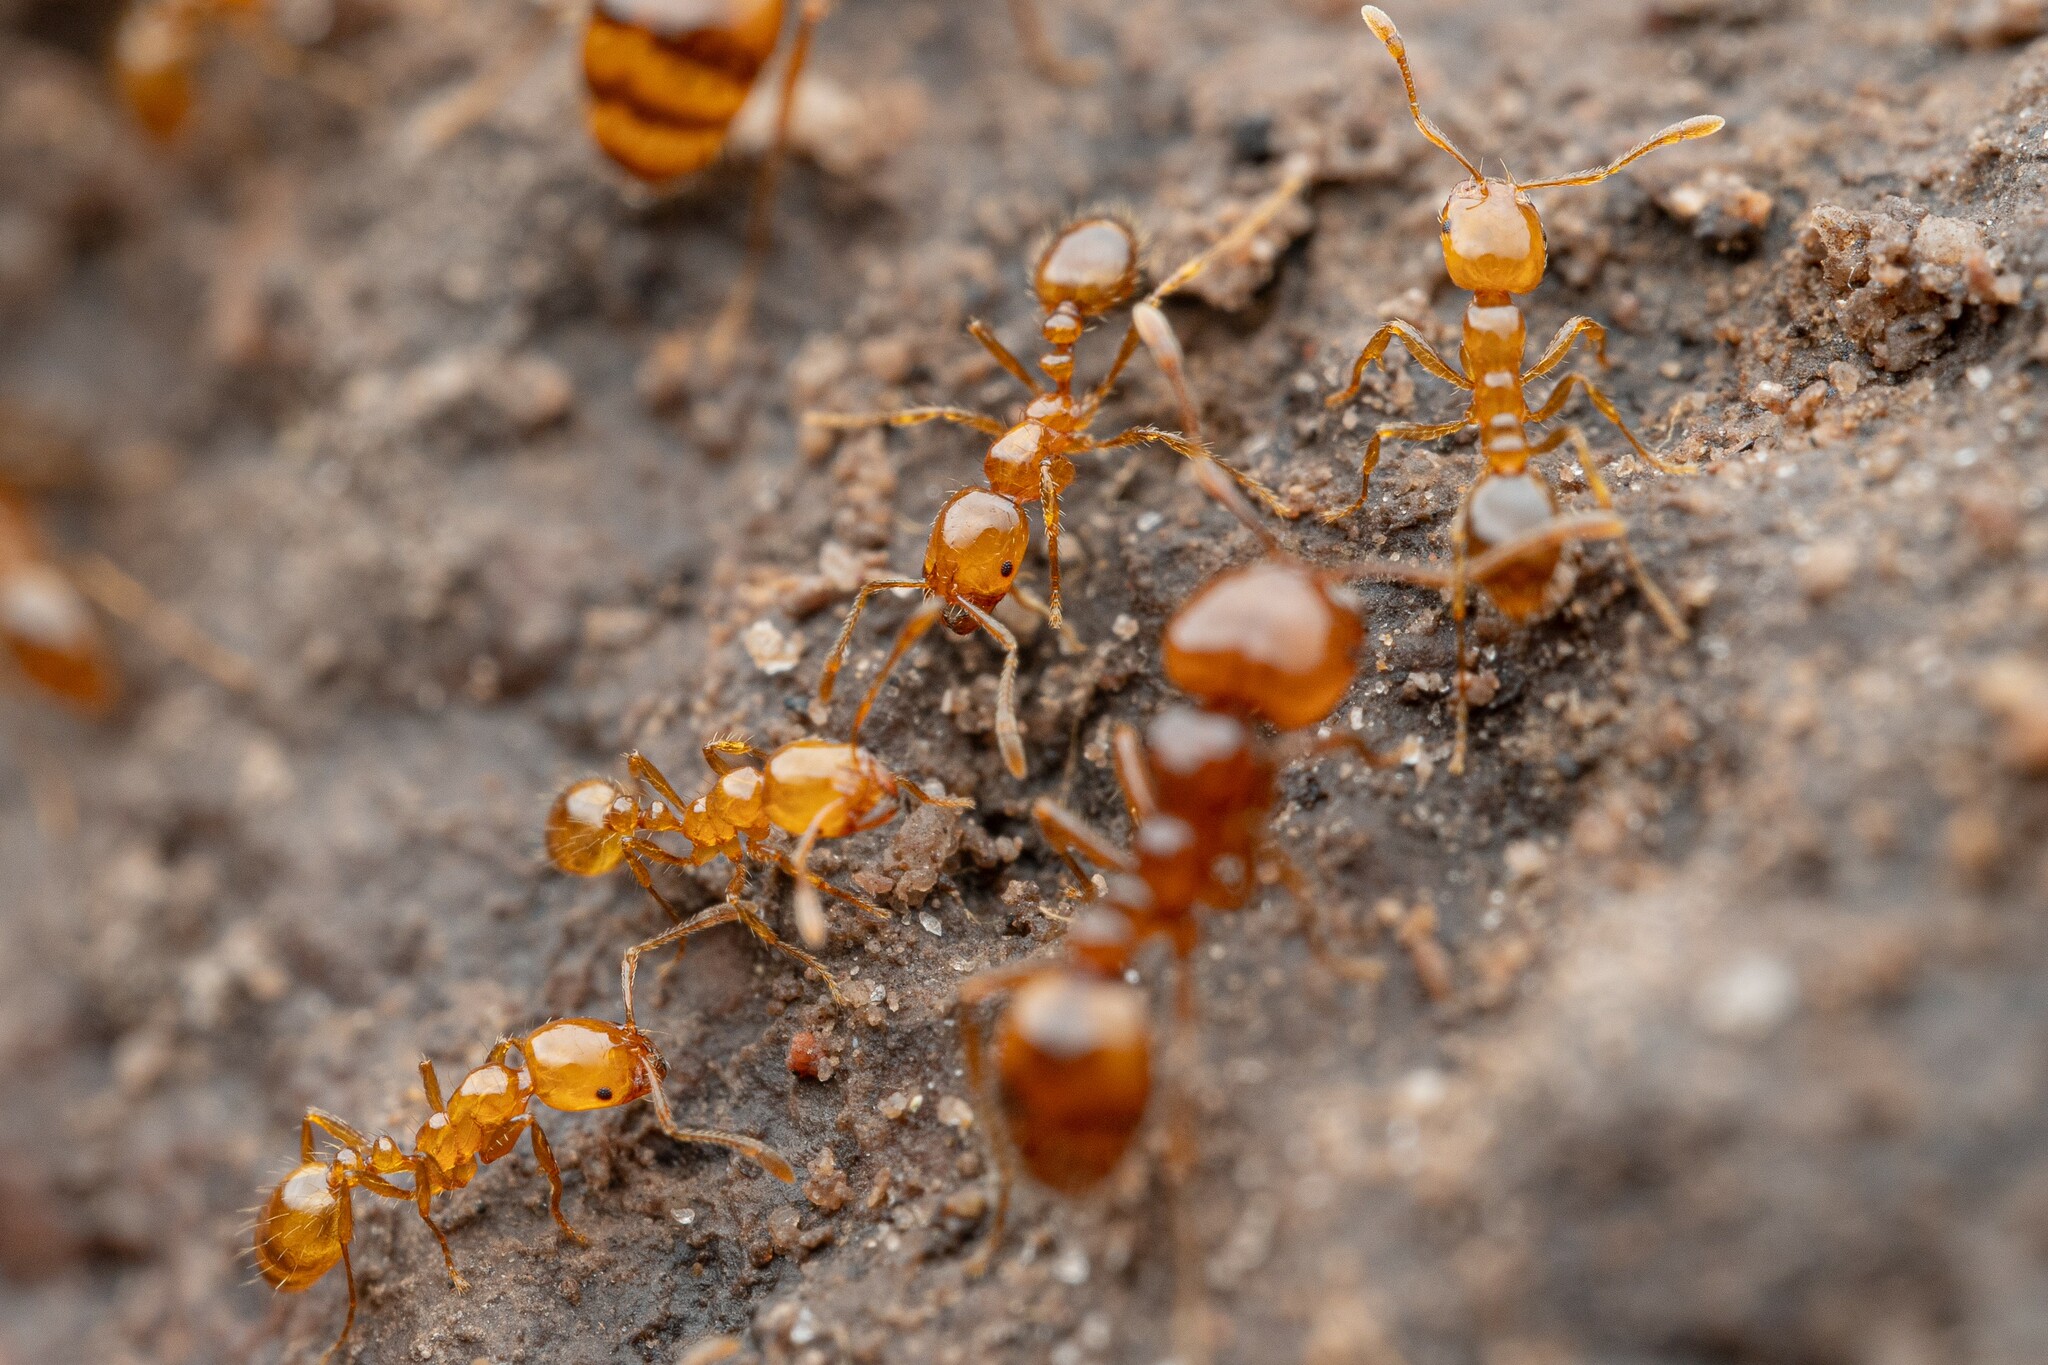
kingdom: Animalia
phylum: Arthropoda
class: Insecta
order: Hymenoptera
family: Formicidae
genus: Solenopsis
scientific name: Solenopsis amblychila
